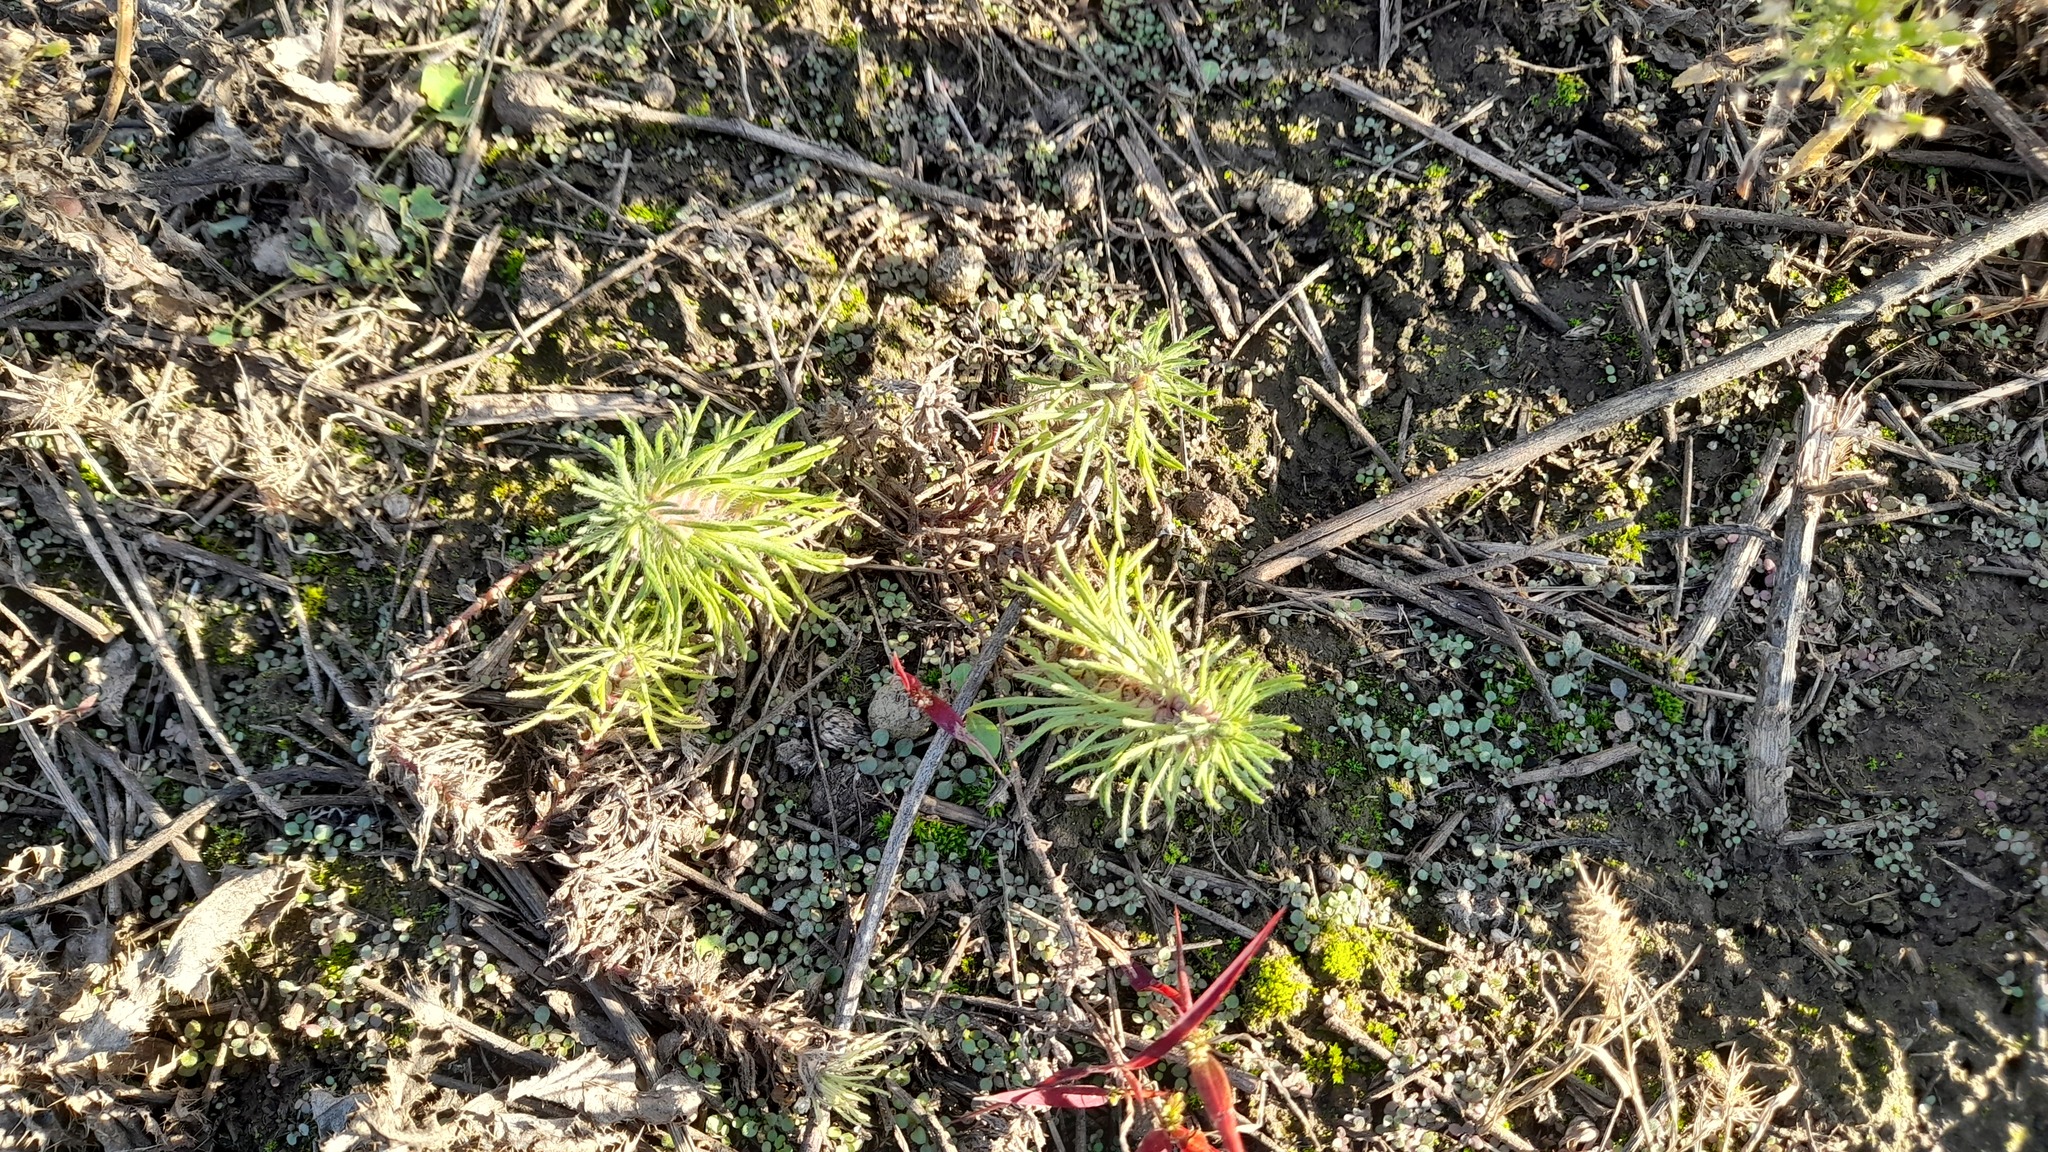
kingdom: Plantae
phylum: Tracheophyta
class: Magnoliopsida
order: Lamiales
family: Lamiaceae
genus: Ajuga
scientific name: Ajuga chamaepitys
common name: Ground-pine
